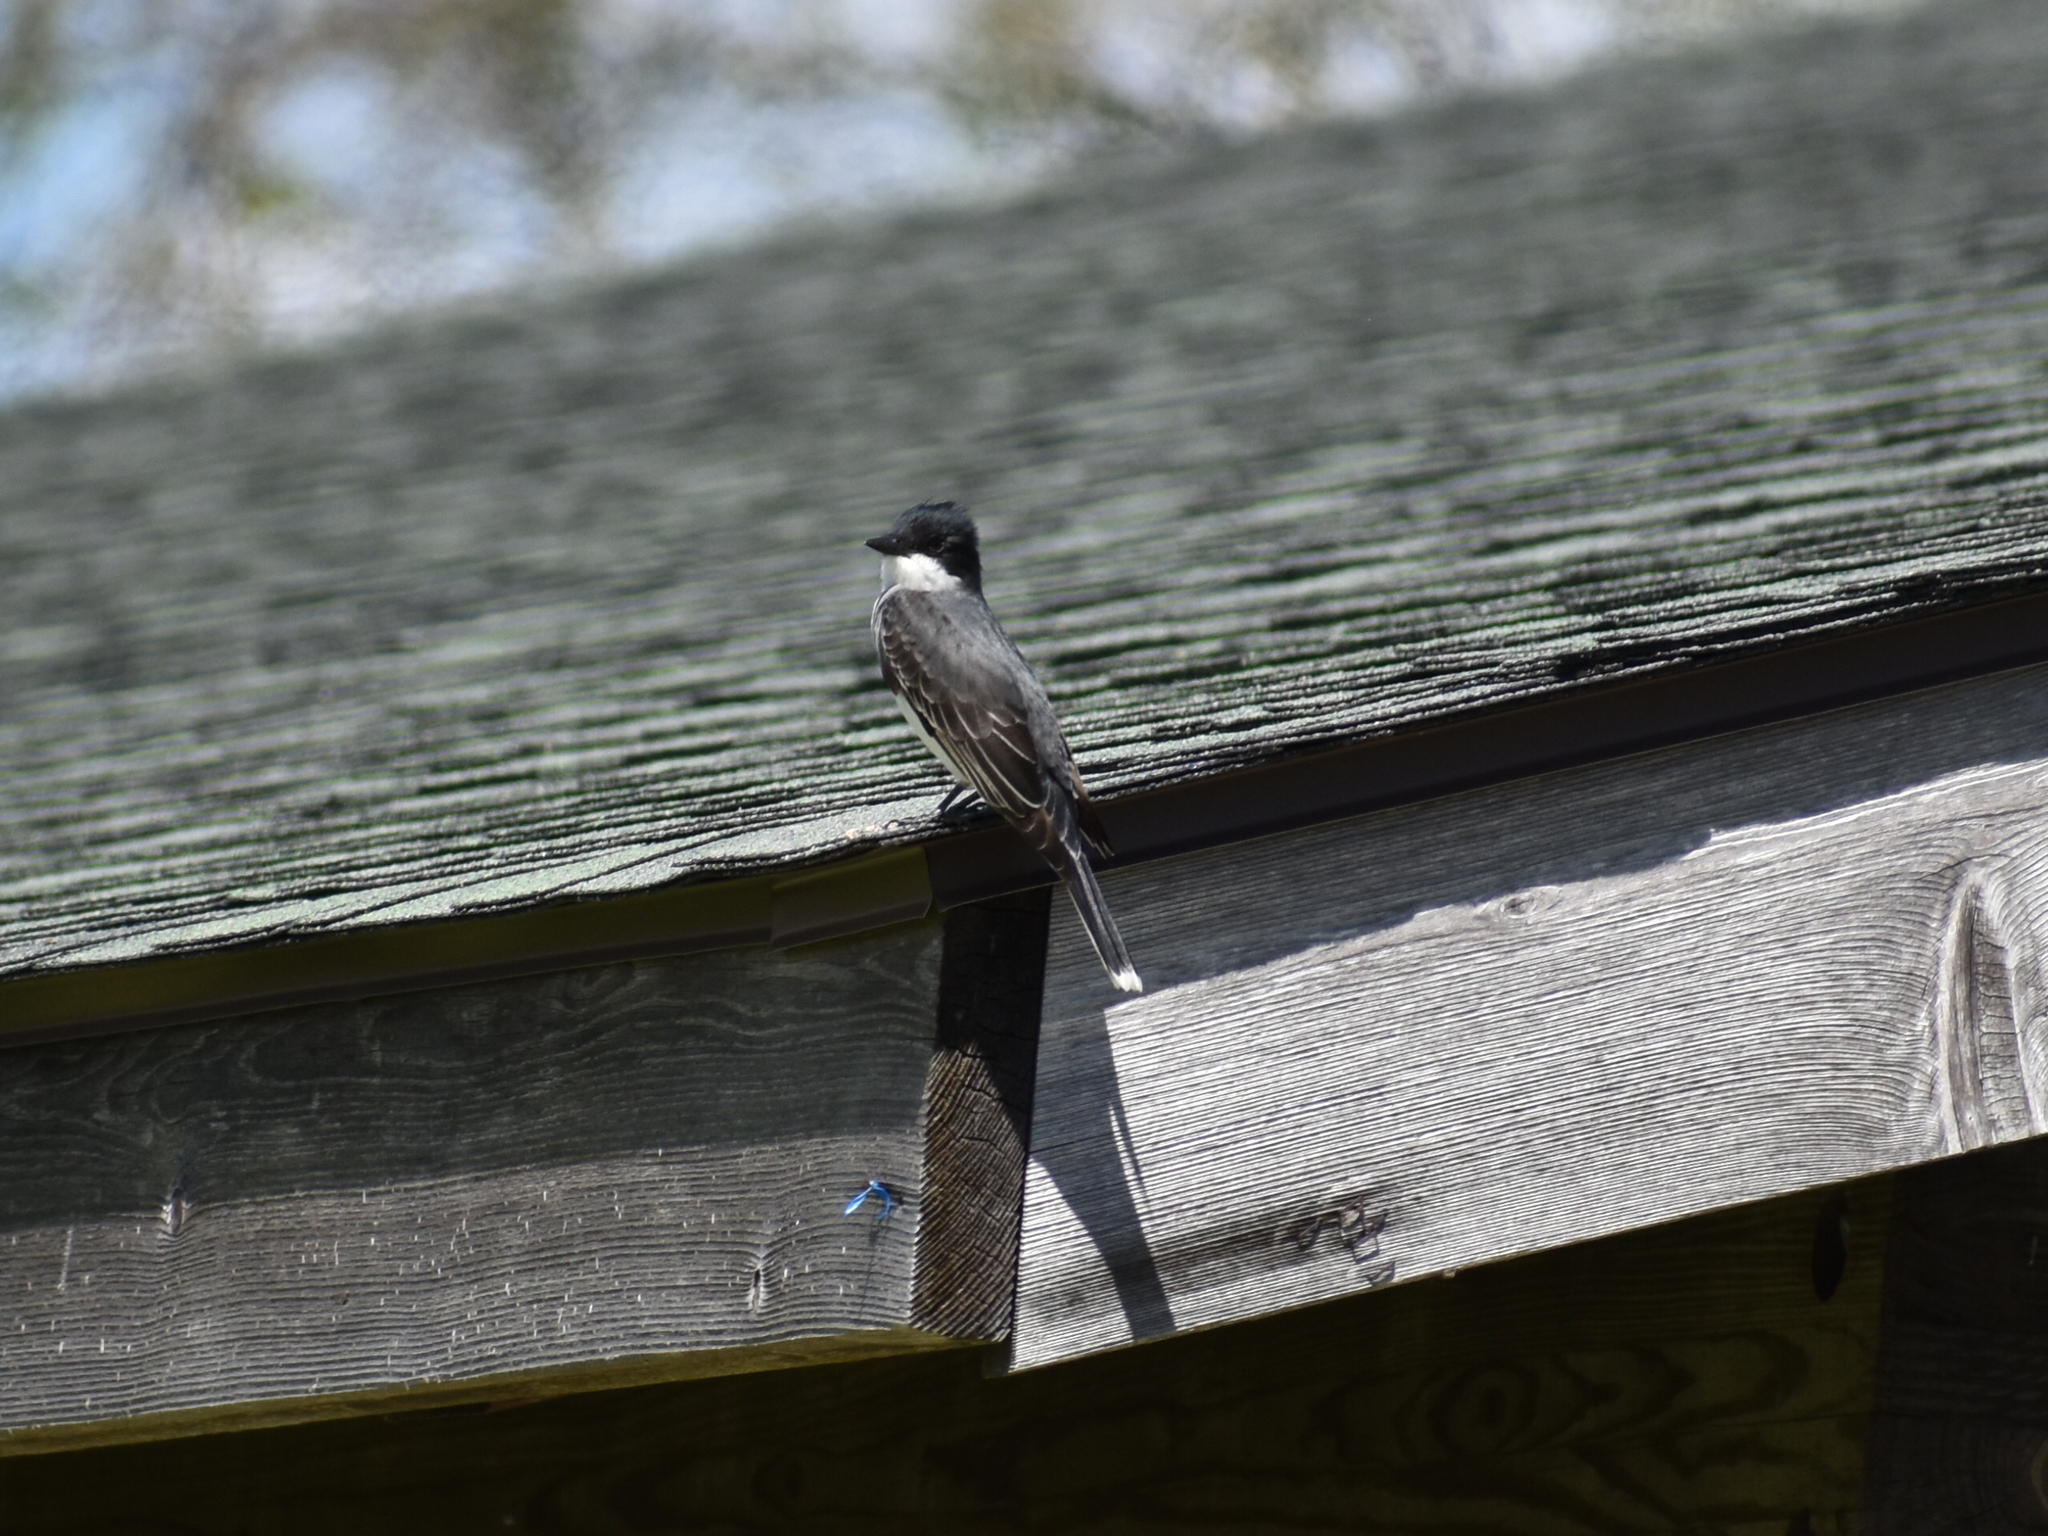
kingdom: Animalia
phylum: Chordata
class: Aves
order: Passeriformes
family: Tyrannidae
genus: Tyrannus
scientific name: Tyrannus tyrannus
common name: Eastern kingbird
